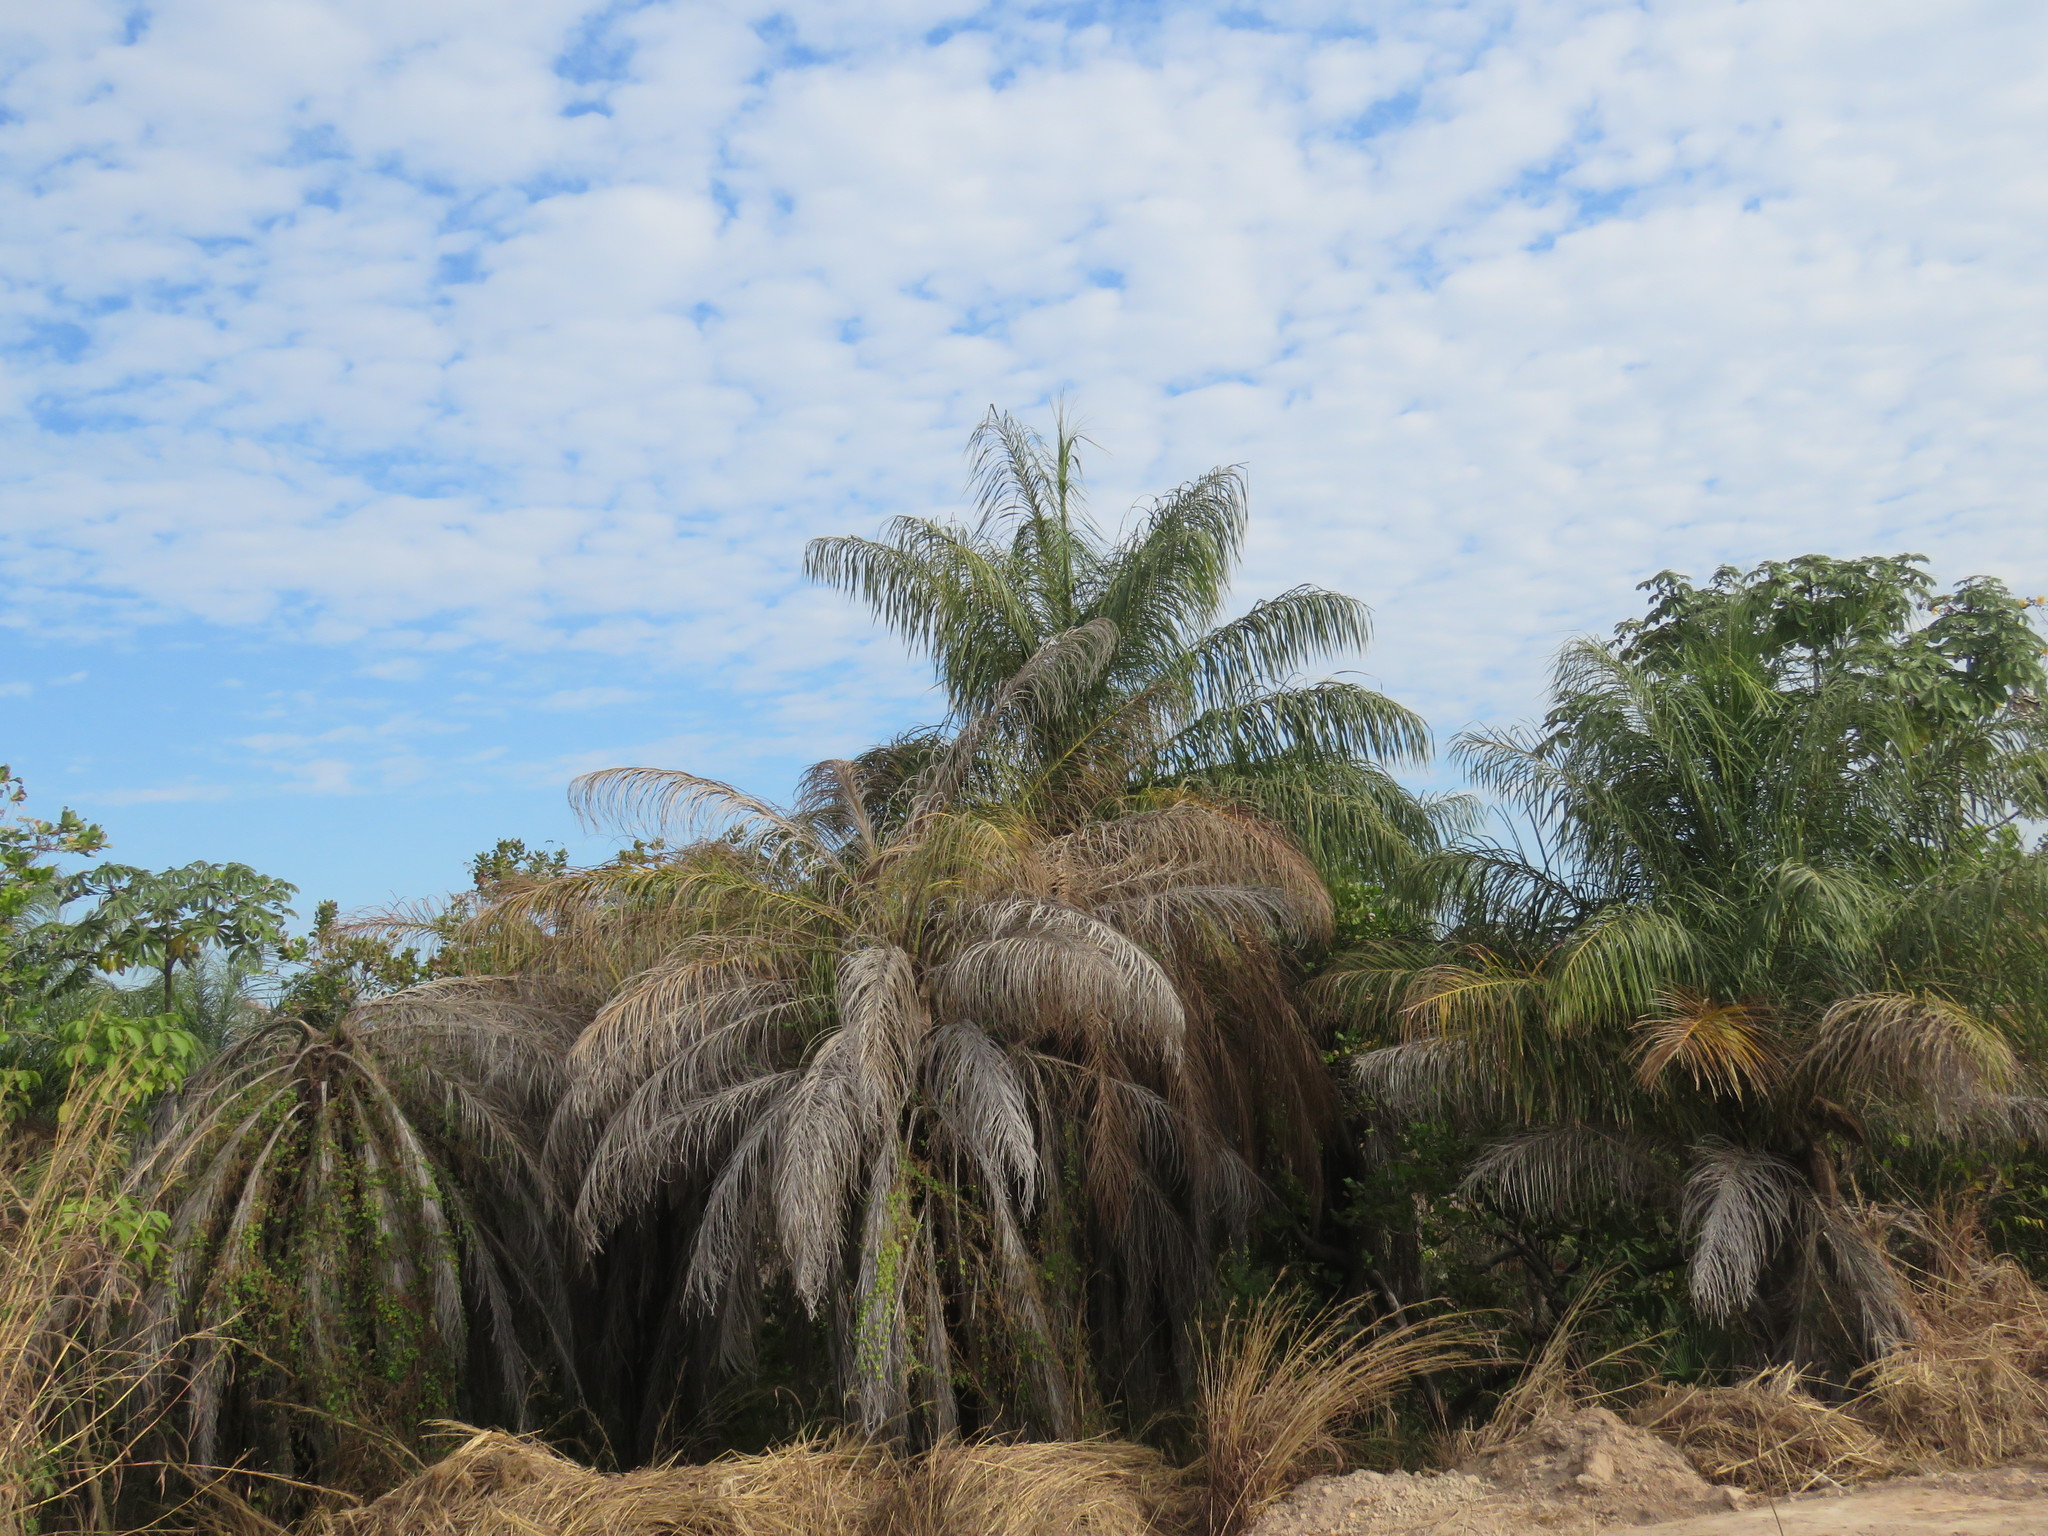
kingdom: Plantae
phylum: Tracheophyta
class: Liliopsida
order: Arecales
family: Arecaceae
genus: Acrocomia
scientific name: Acrocomia aculeata
